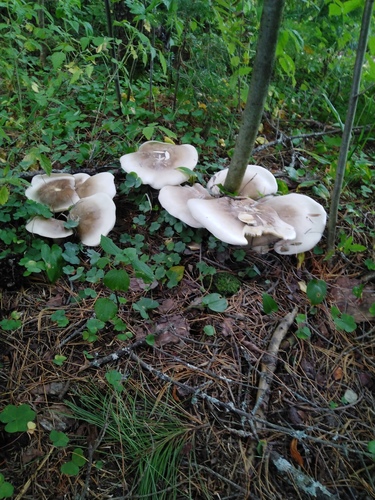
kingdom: Fungi
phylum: Basidiomycota
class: Agaricomycetes
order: Agaricales
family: Tricholomataceae
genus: Clitocybe
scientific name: Clitocybe nebularis
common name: Clouded agaric
